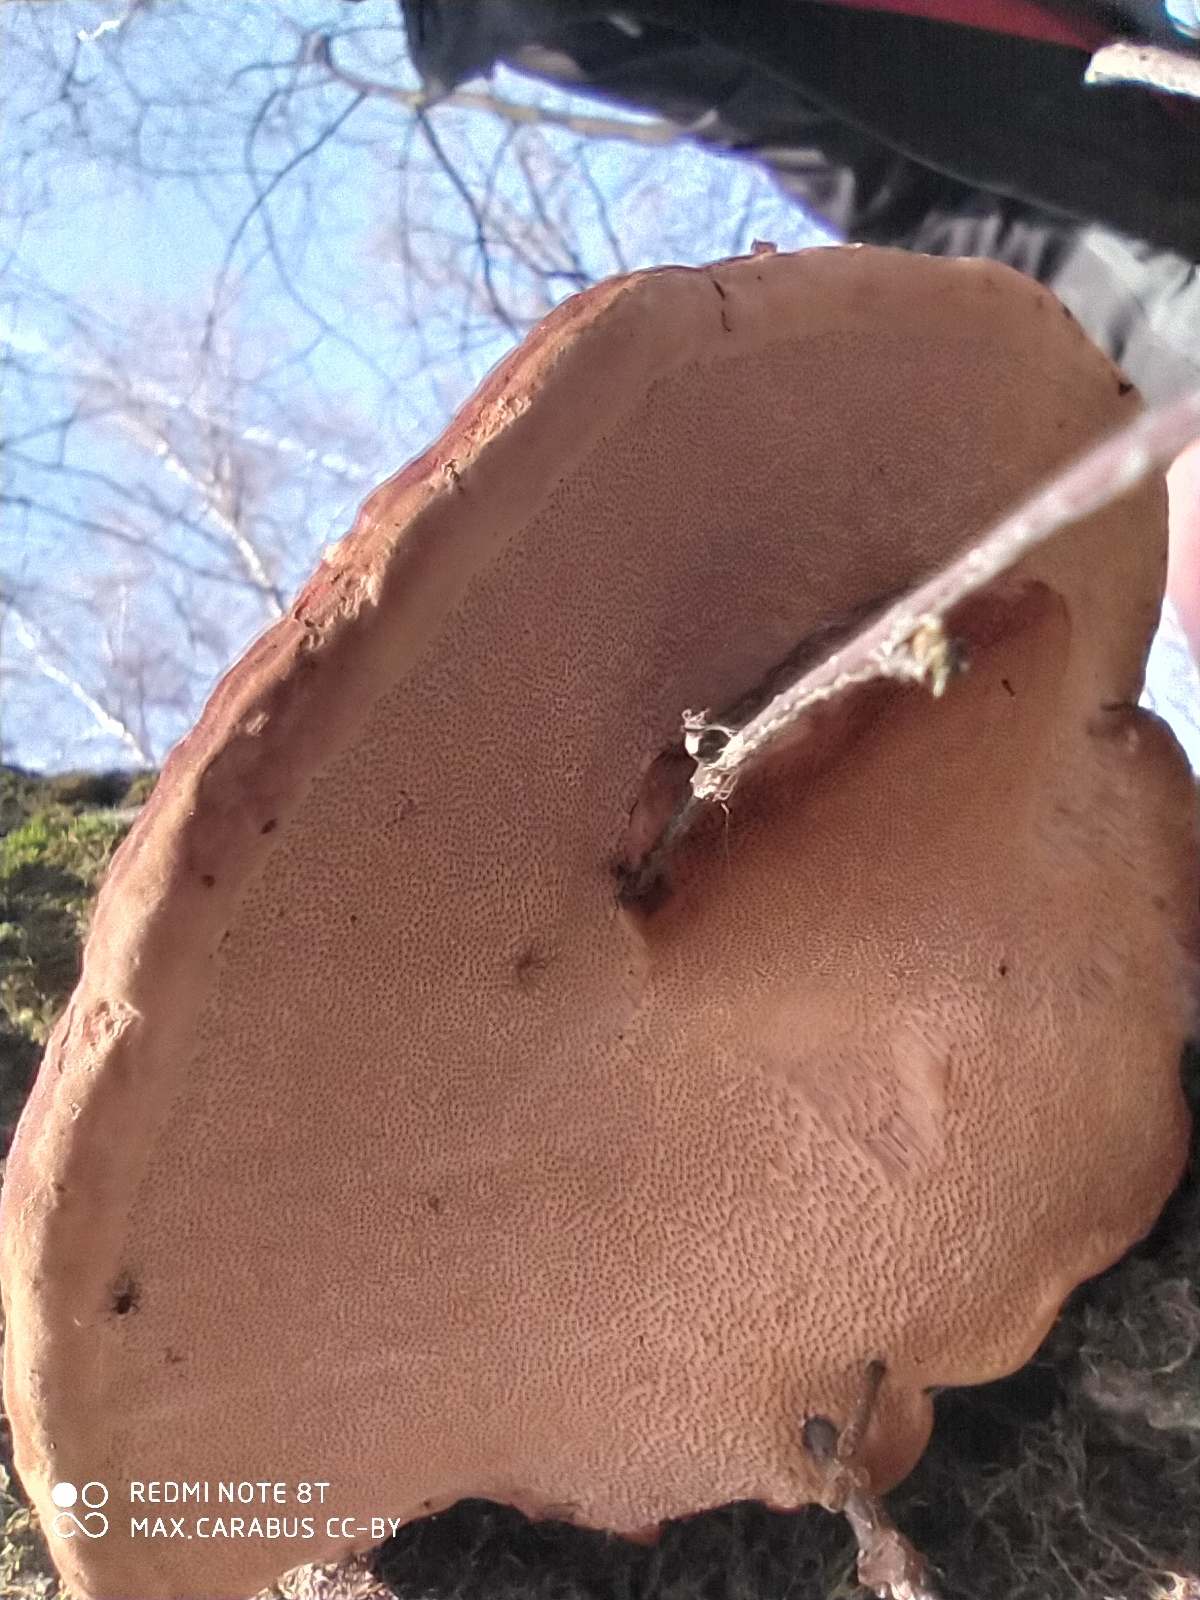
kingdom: Fungi
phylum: Basidiomycota
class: Agaricomycetes
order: Polyporales
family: Fomitopsidaceae
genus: Fomitopsis
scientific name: Fomitopsis pinicola
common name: Red-belted bracket
